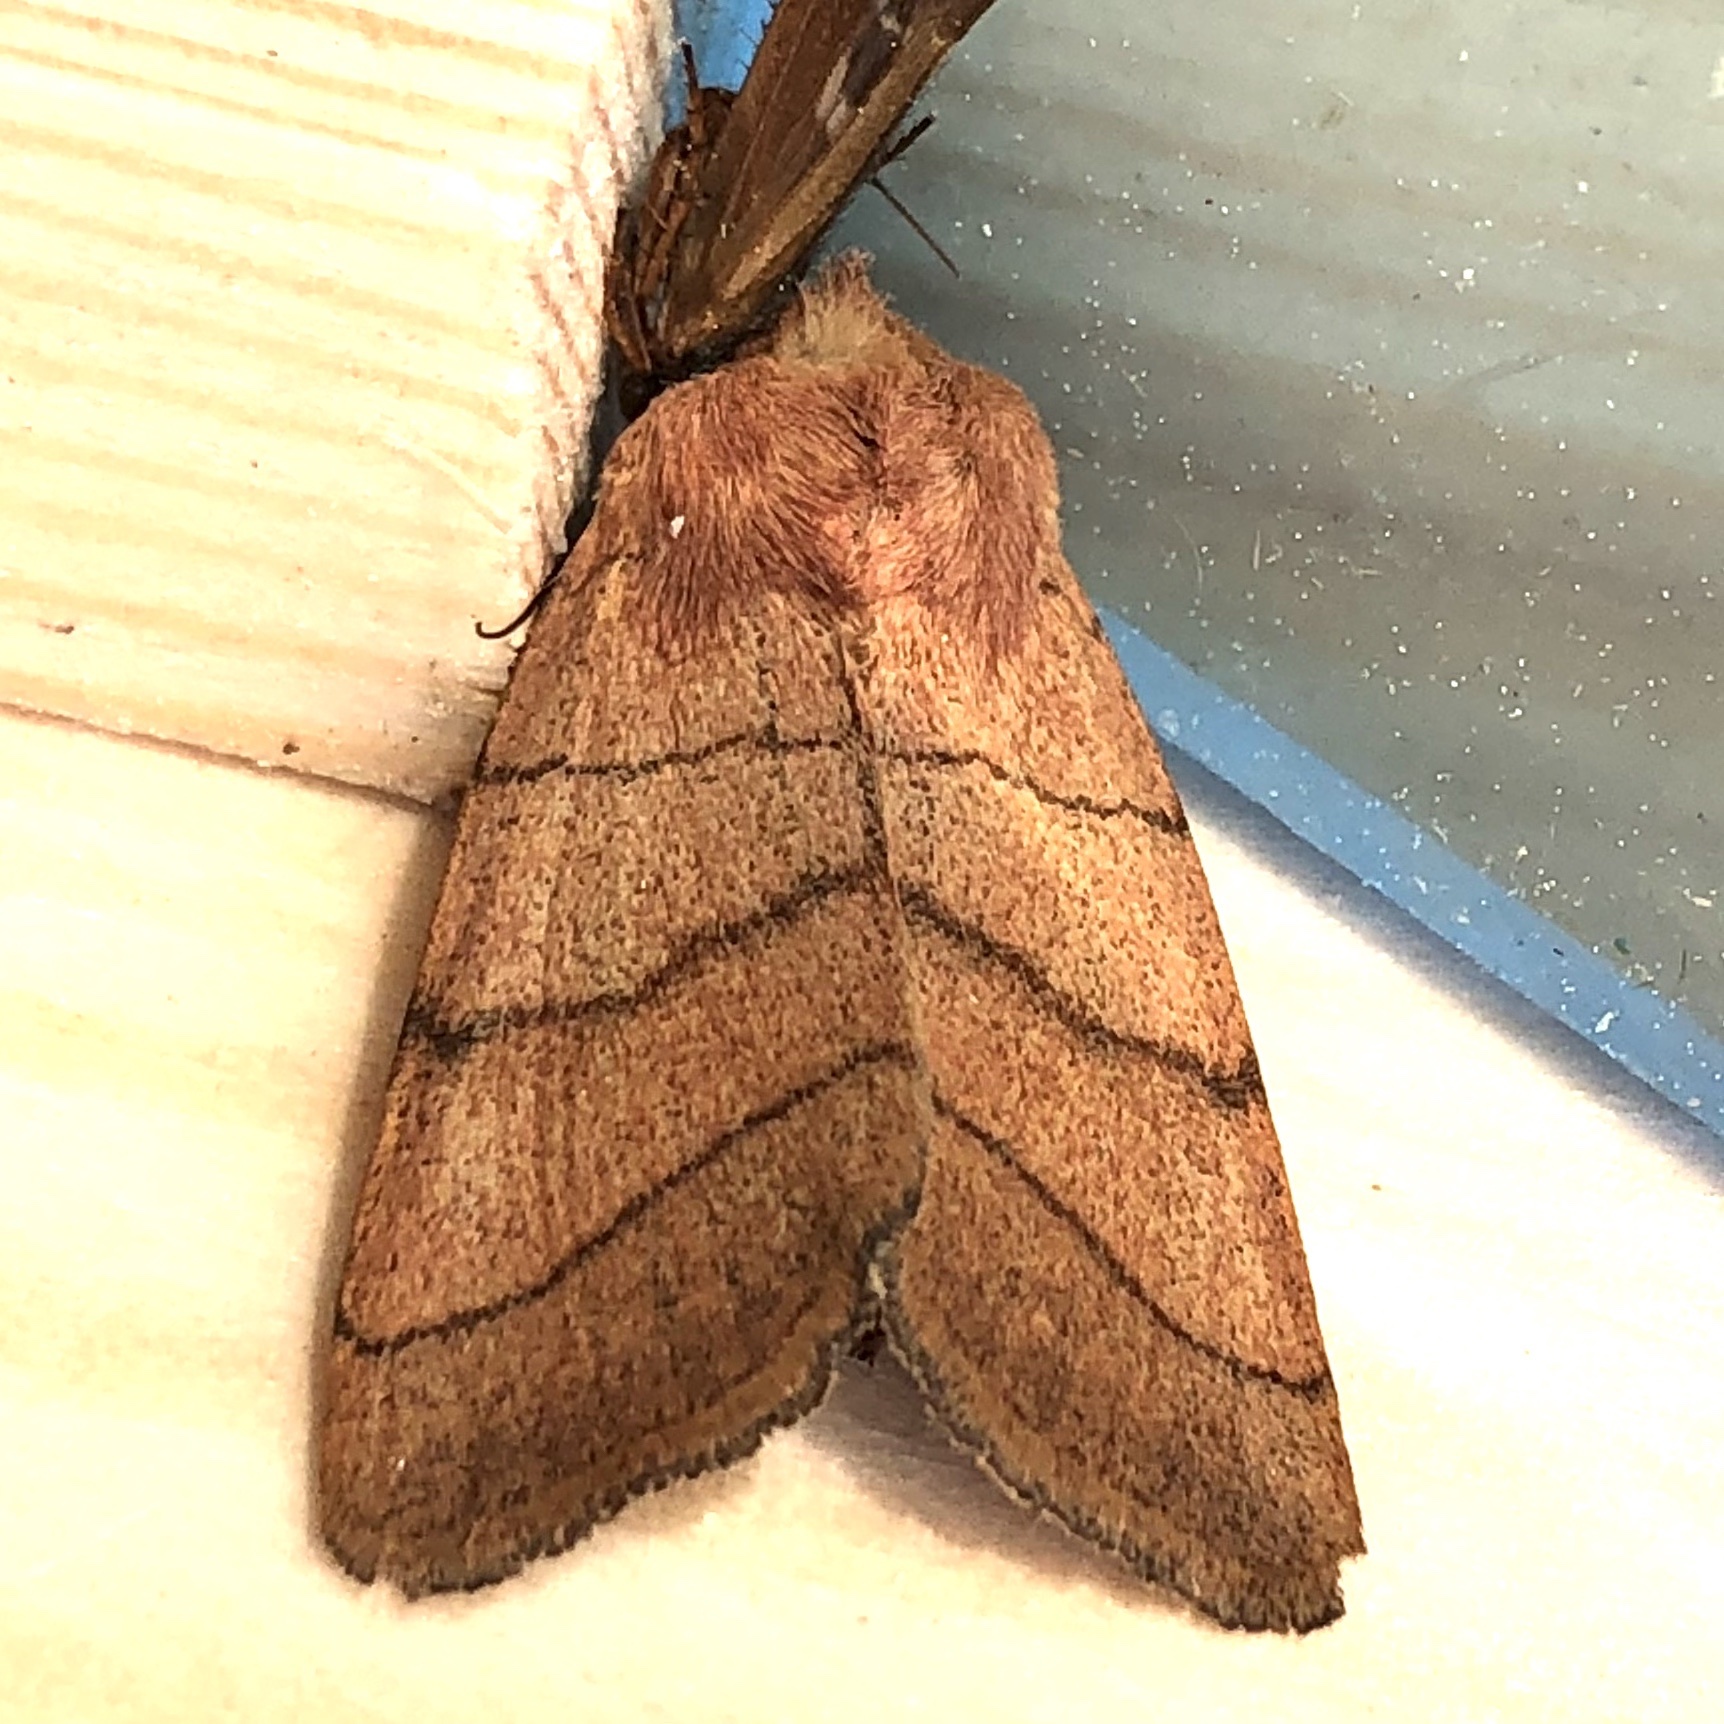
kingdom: Animalia
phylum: Arthropoda
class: Insecta
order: Lepidoptera
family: Noctuidae
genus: Charanyca
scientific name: Charanyca trigrammica
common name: Treble lines
